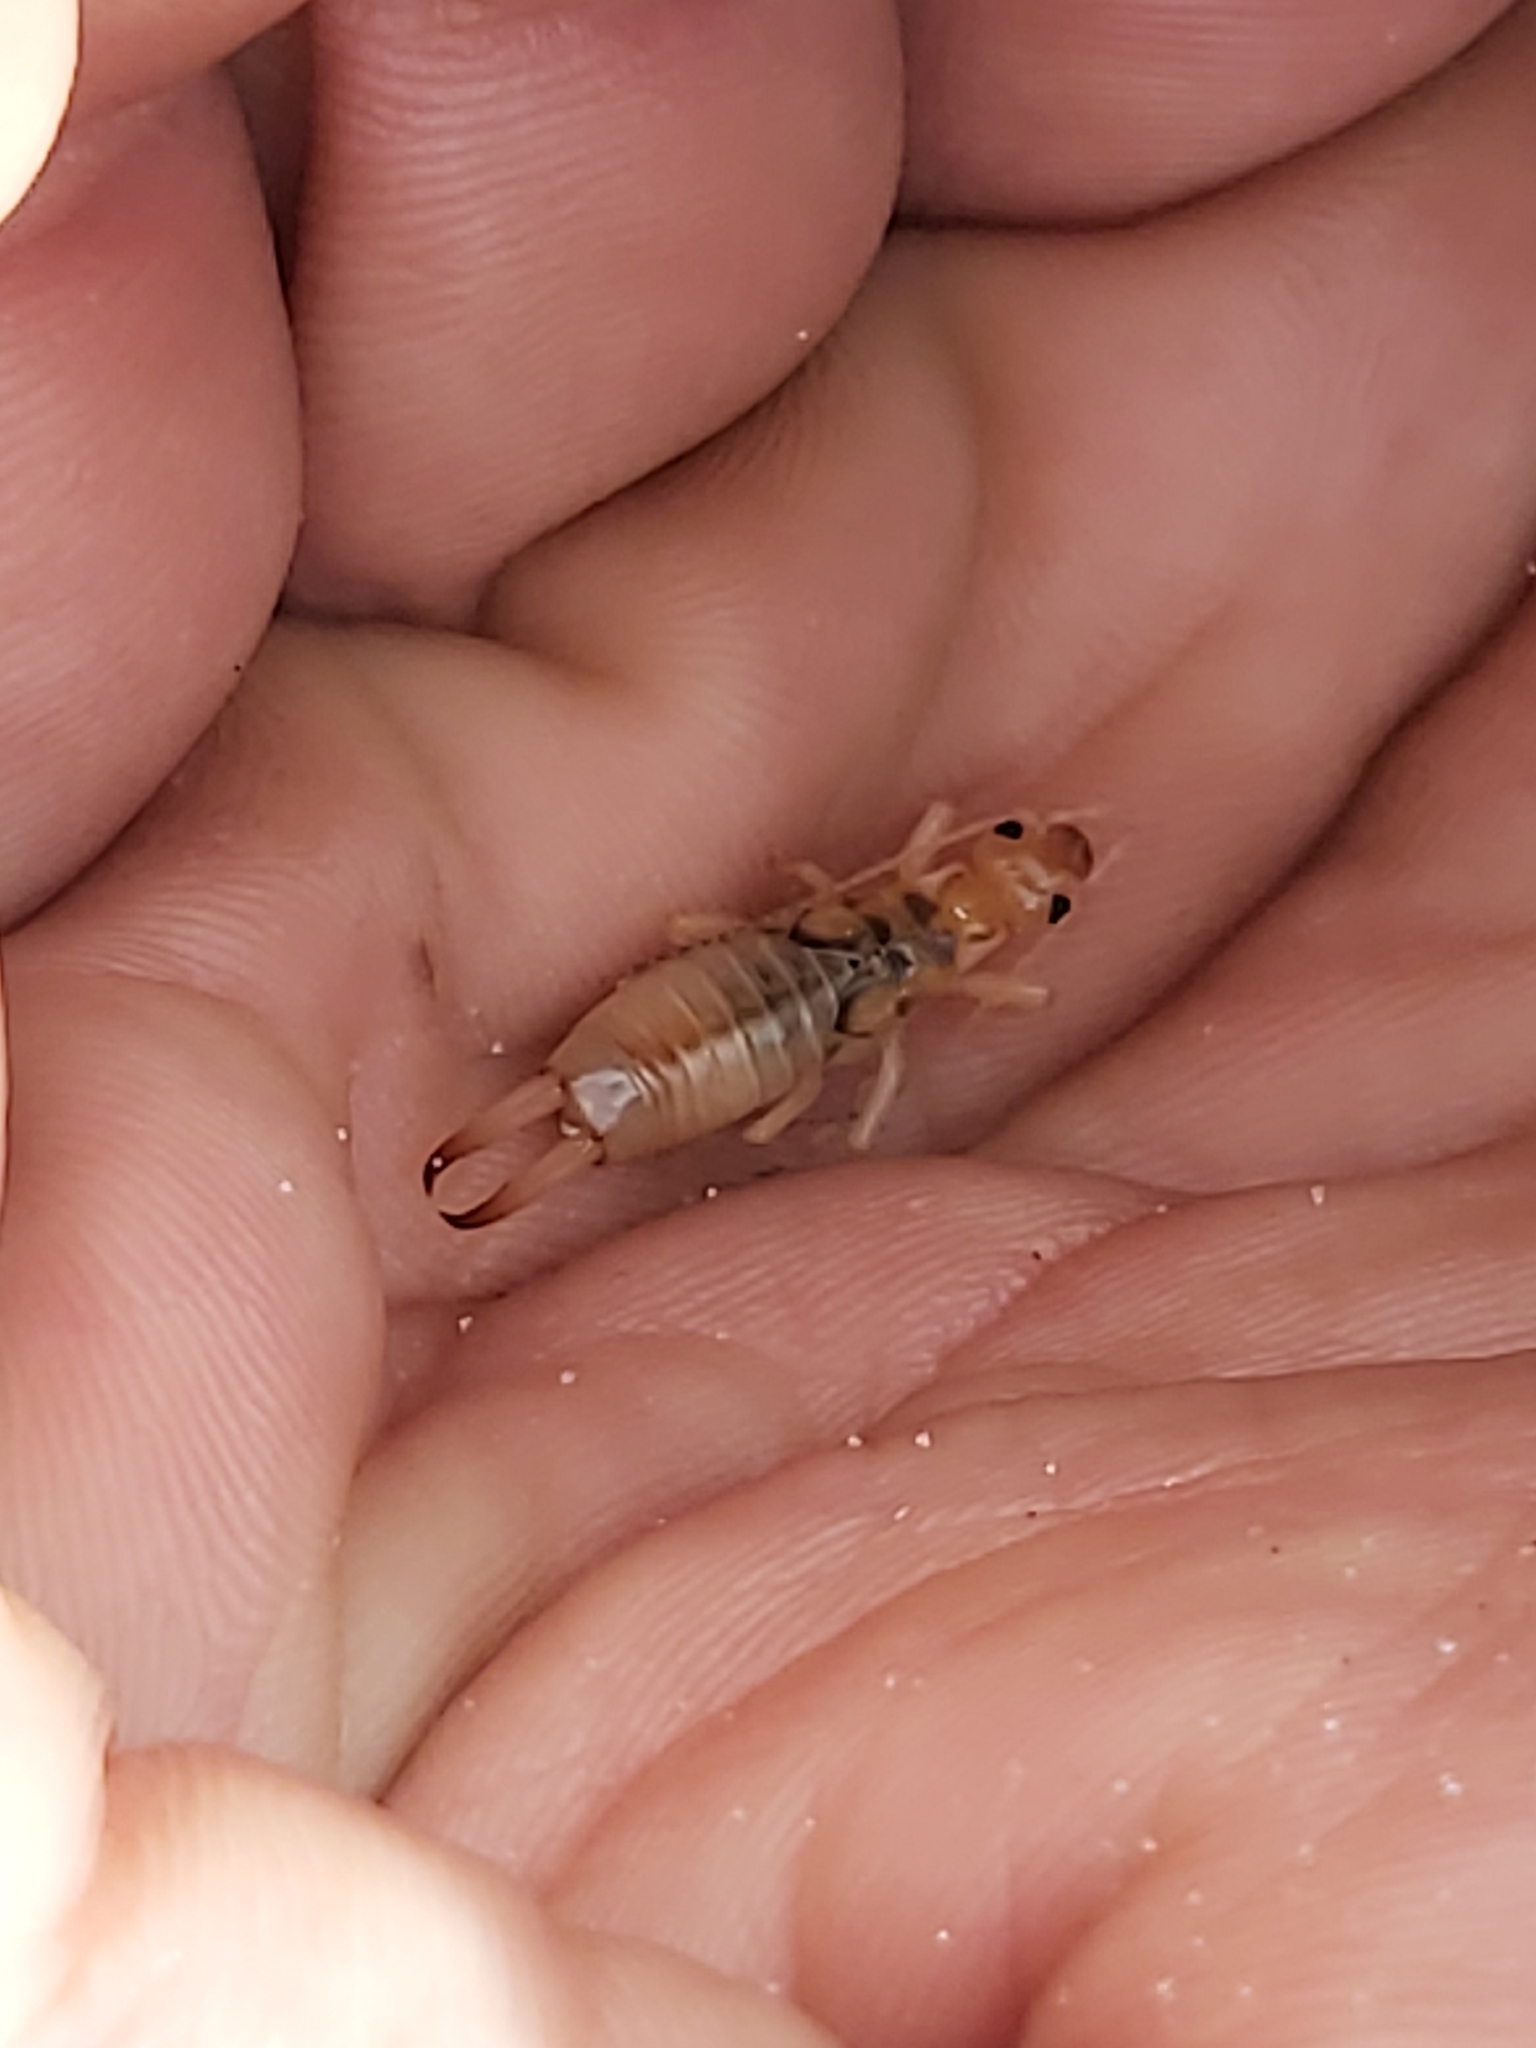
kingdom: Animalia
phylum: Arthropoda
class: Insecta
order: Dermaptera
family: Labiduridae
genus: Labidura
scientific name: Labidura riparia
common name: Striped earwig
